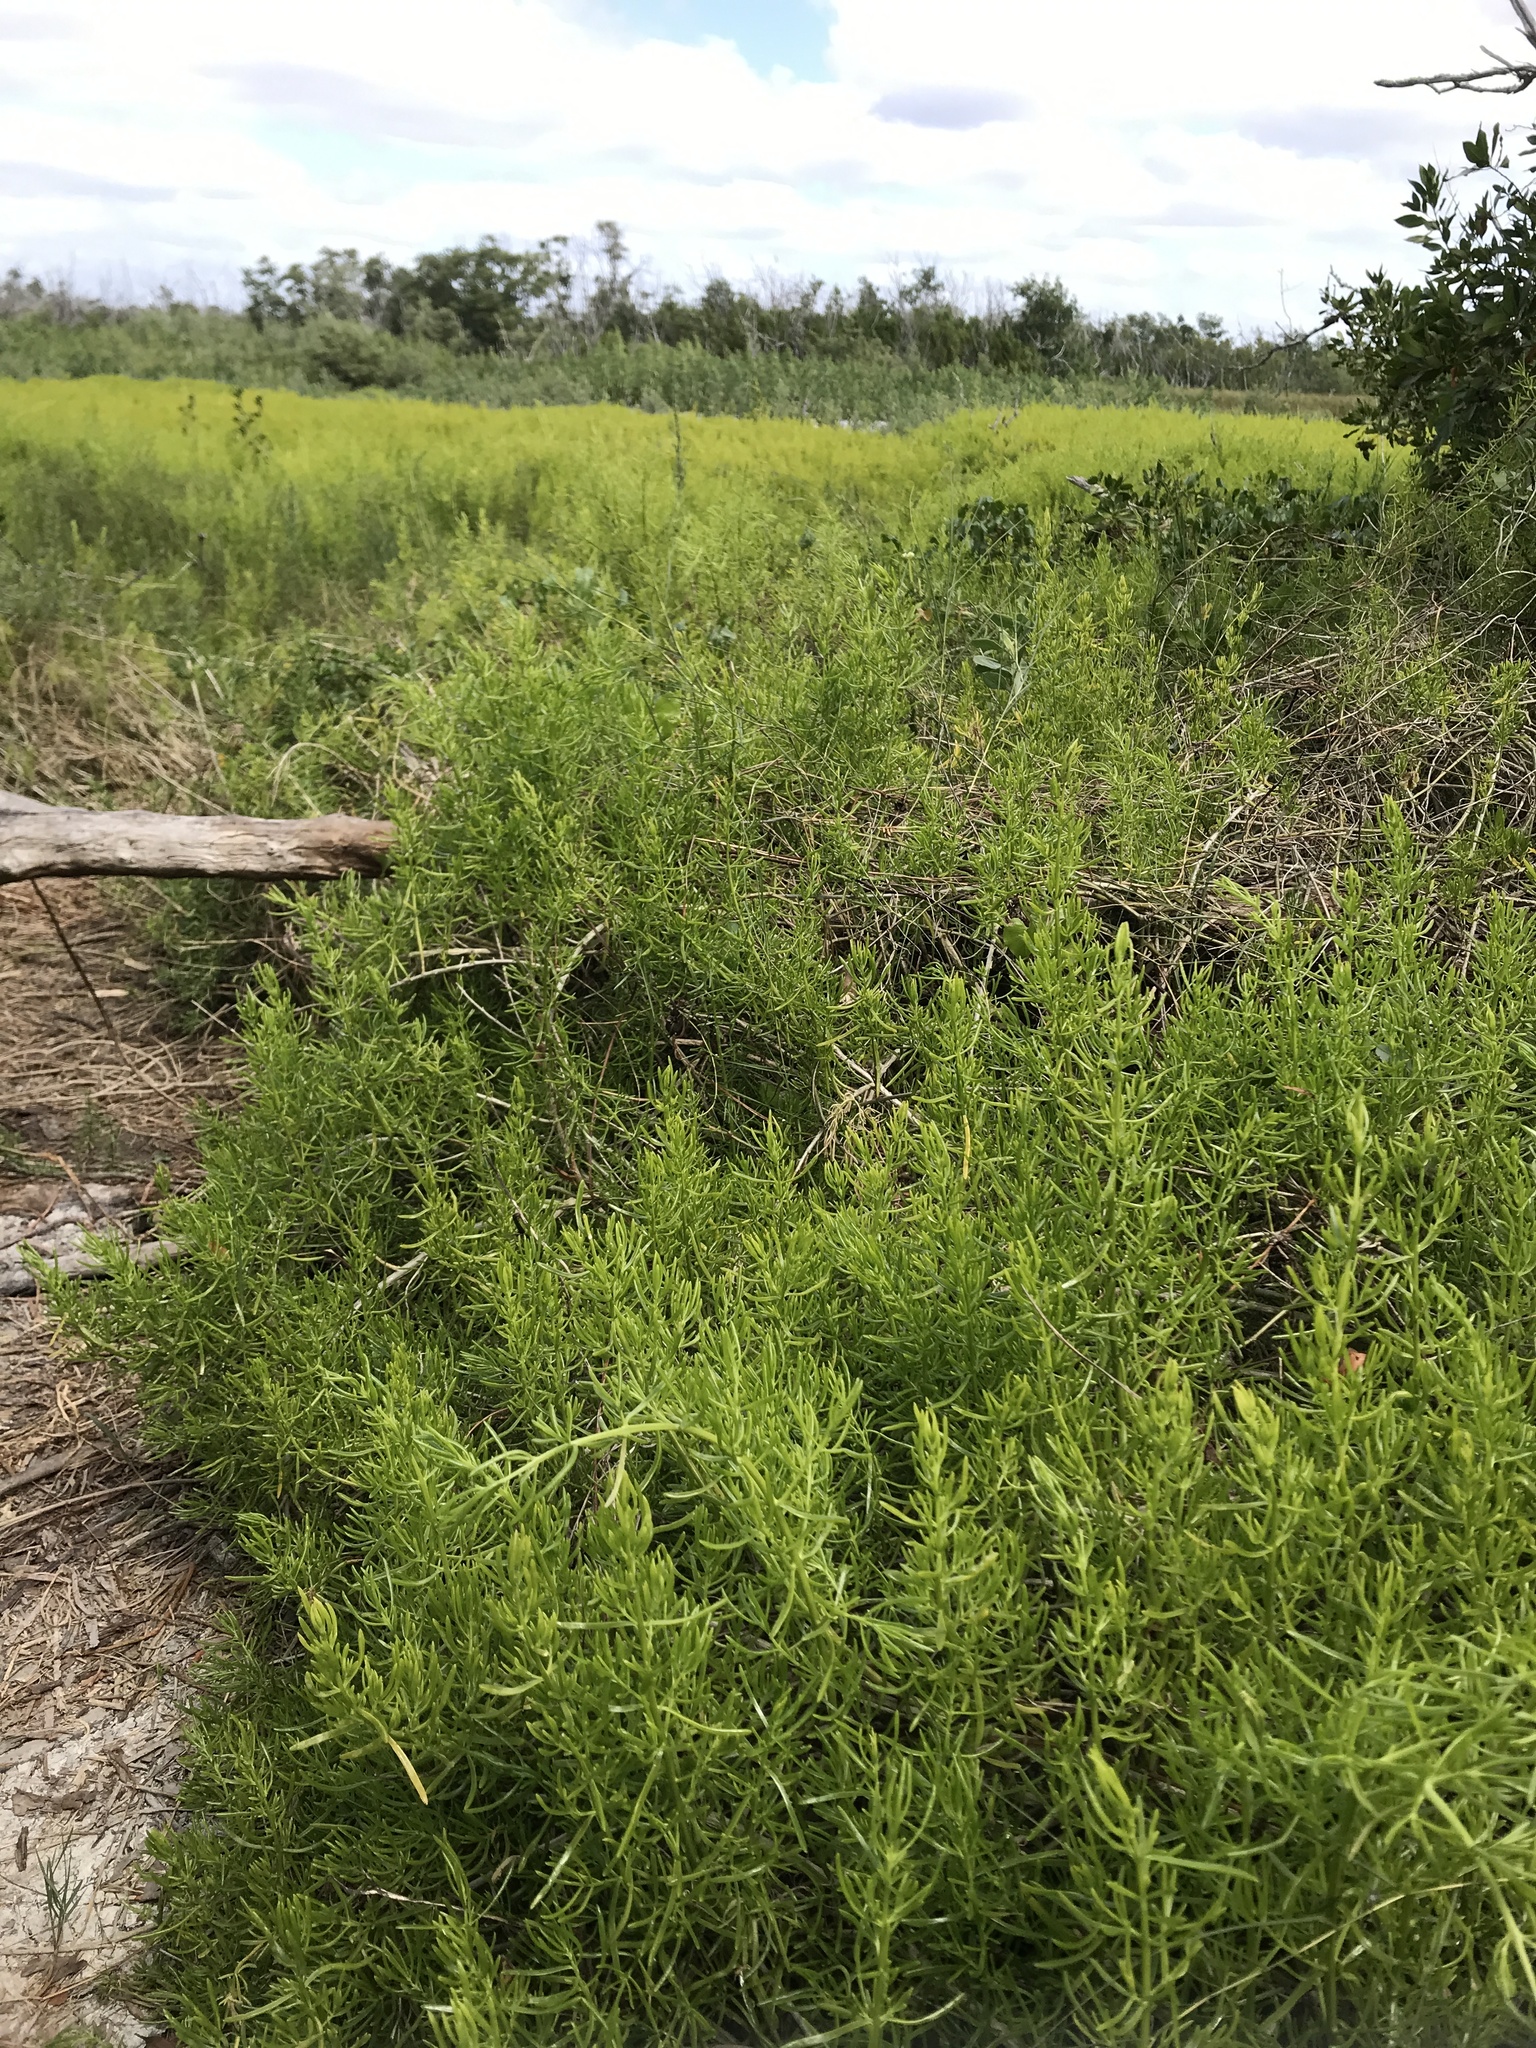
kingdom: Plantae
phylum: Tracheophyta
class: Magnoliopsida
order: Brassicales
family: Bataceae
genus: Batis
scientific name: Batis maritima
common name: Turtleweed
